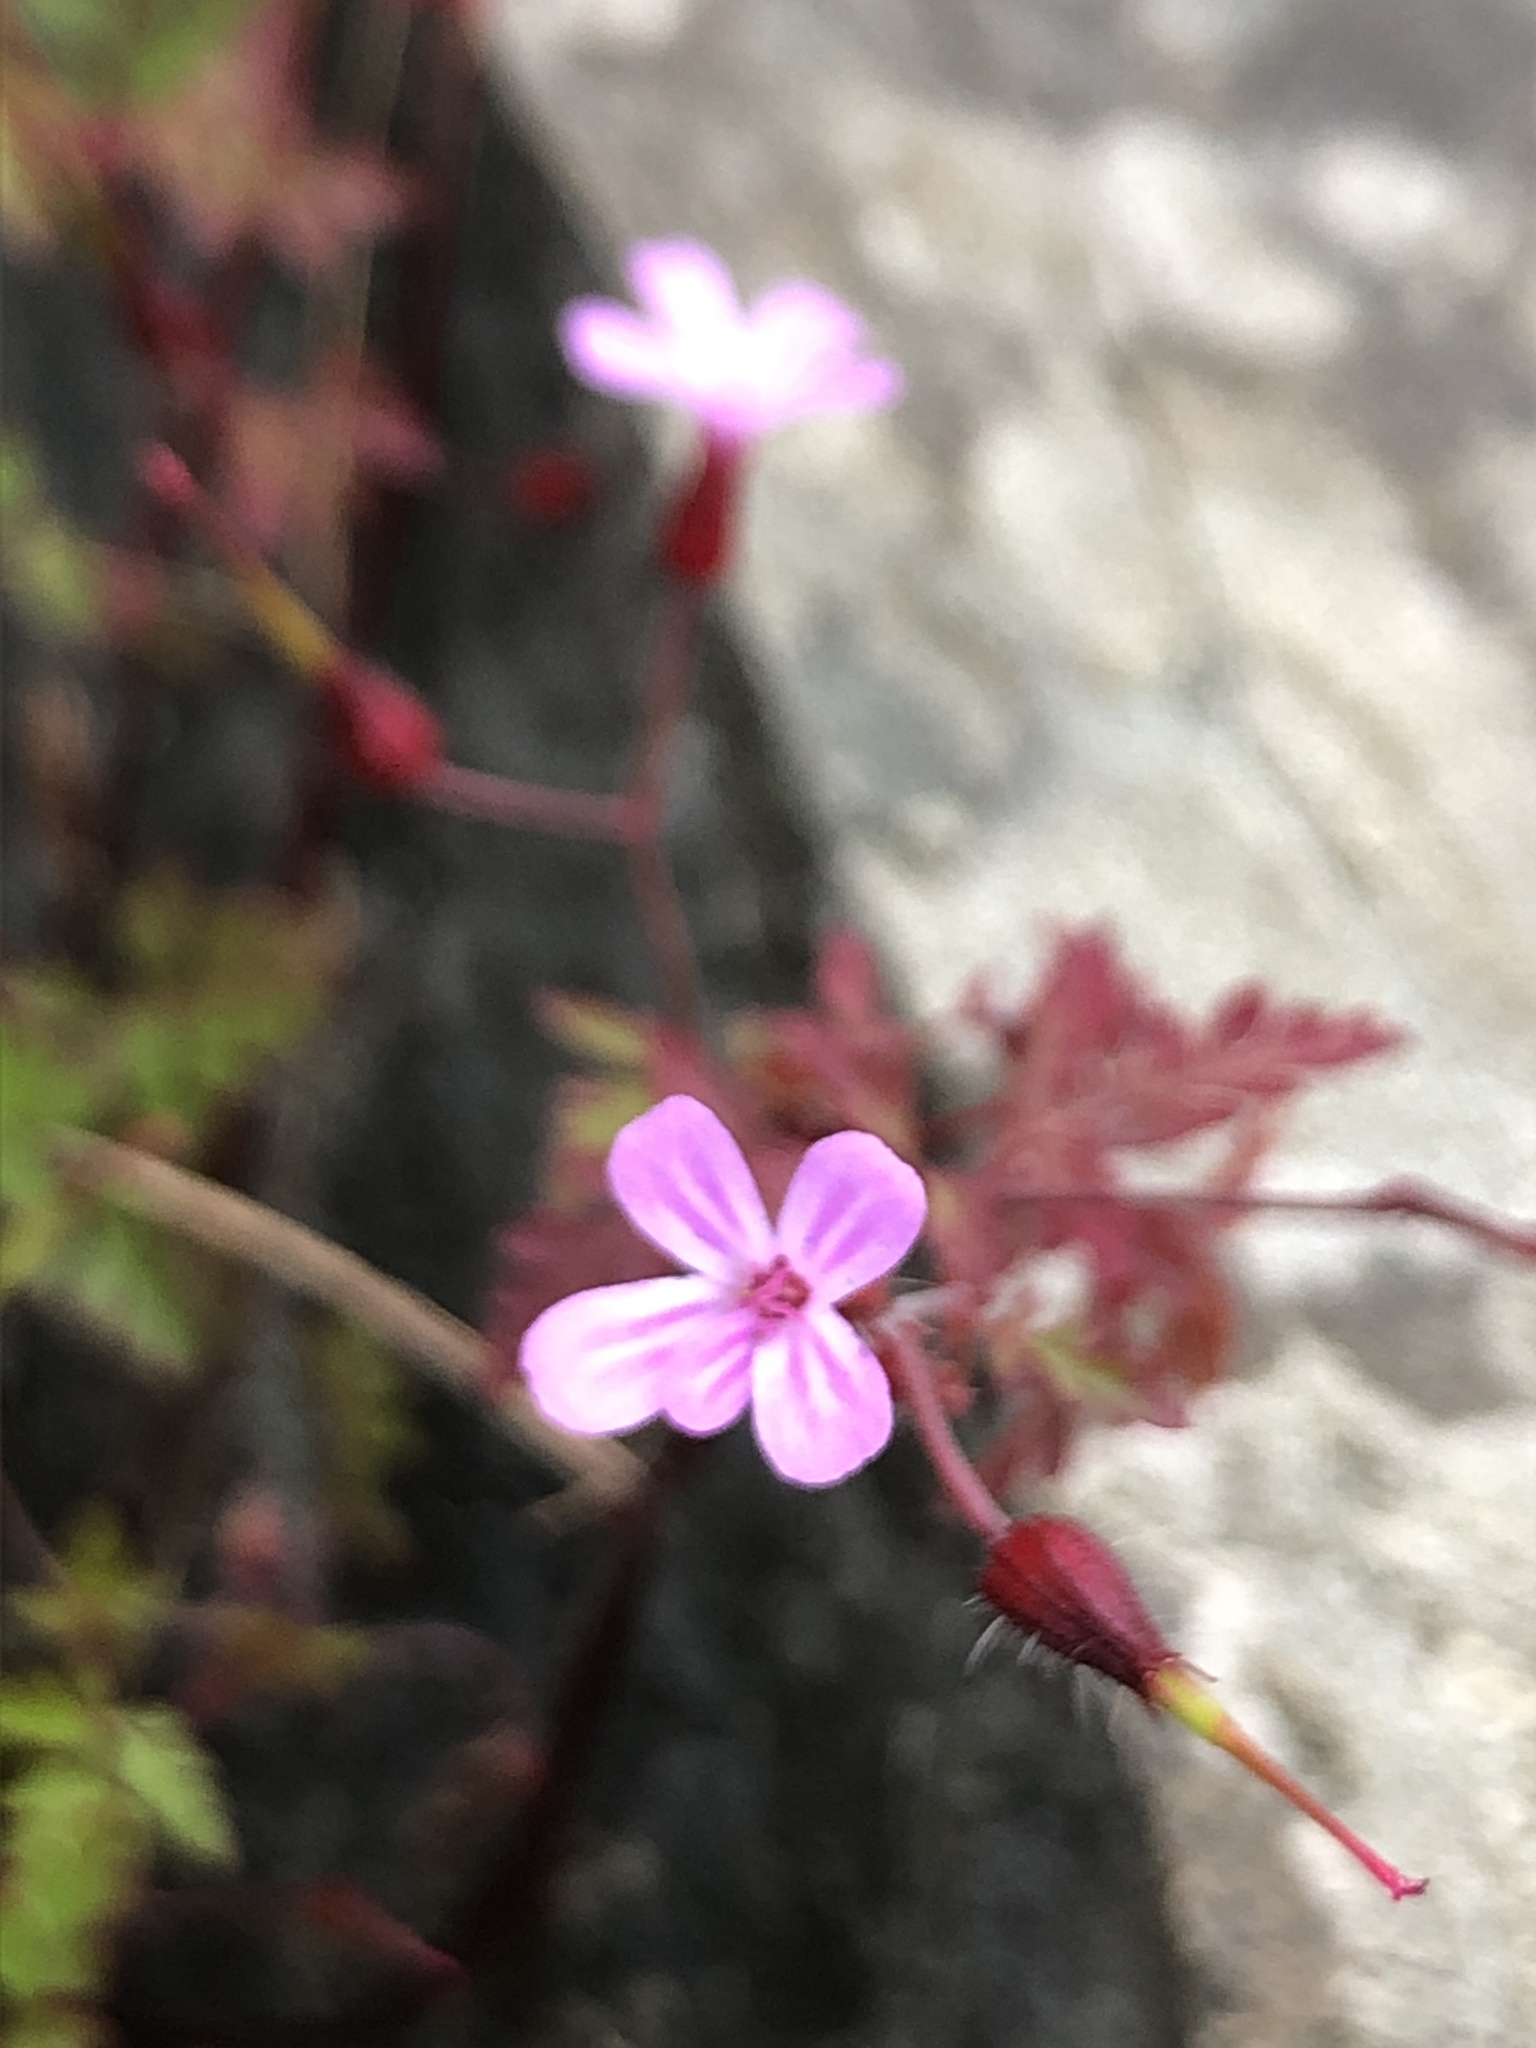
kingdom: Plantae
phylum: Tracheophyta
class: Magnoliopsida
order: Geraniales
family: Geraniaceae
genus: Geranium
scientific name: Geranium robertianum
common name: Herb-robert
